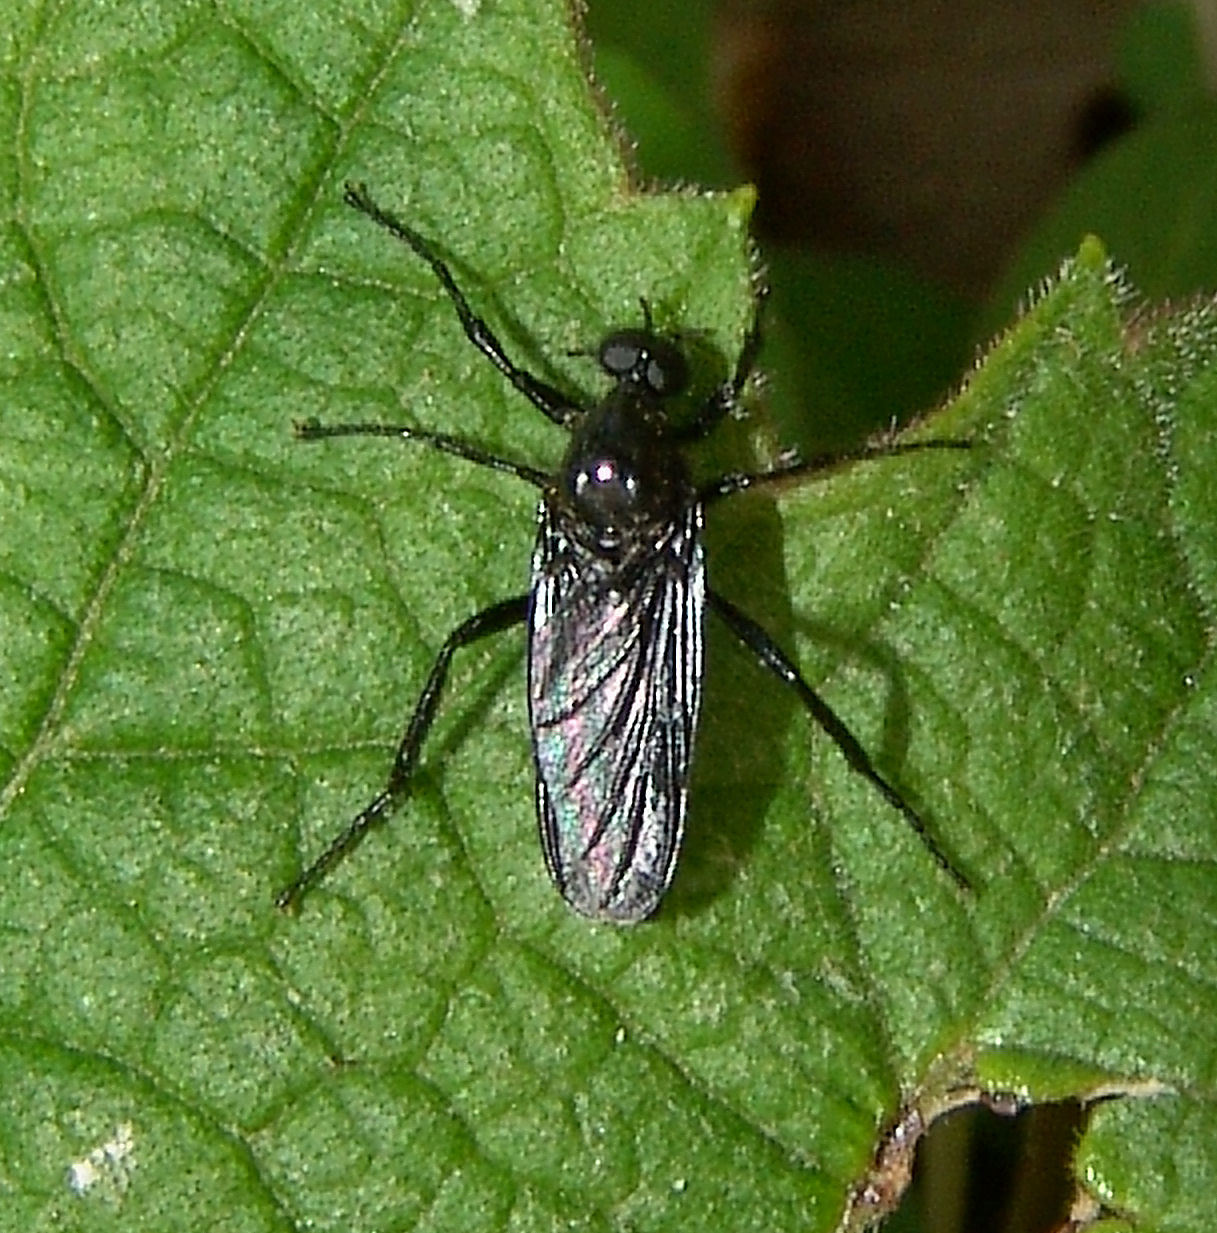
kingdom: Animalia
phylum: Arthropoda
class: Insecta
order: Diptera
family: Bibionidae
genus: Bibio
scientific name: Bibio superfluus
